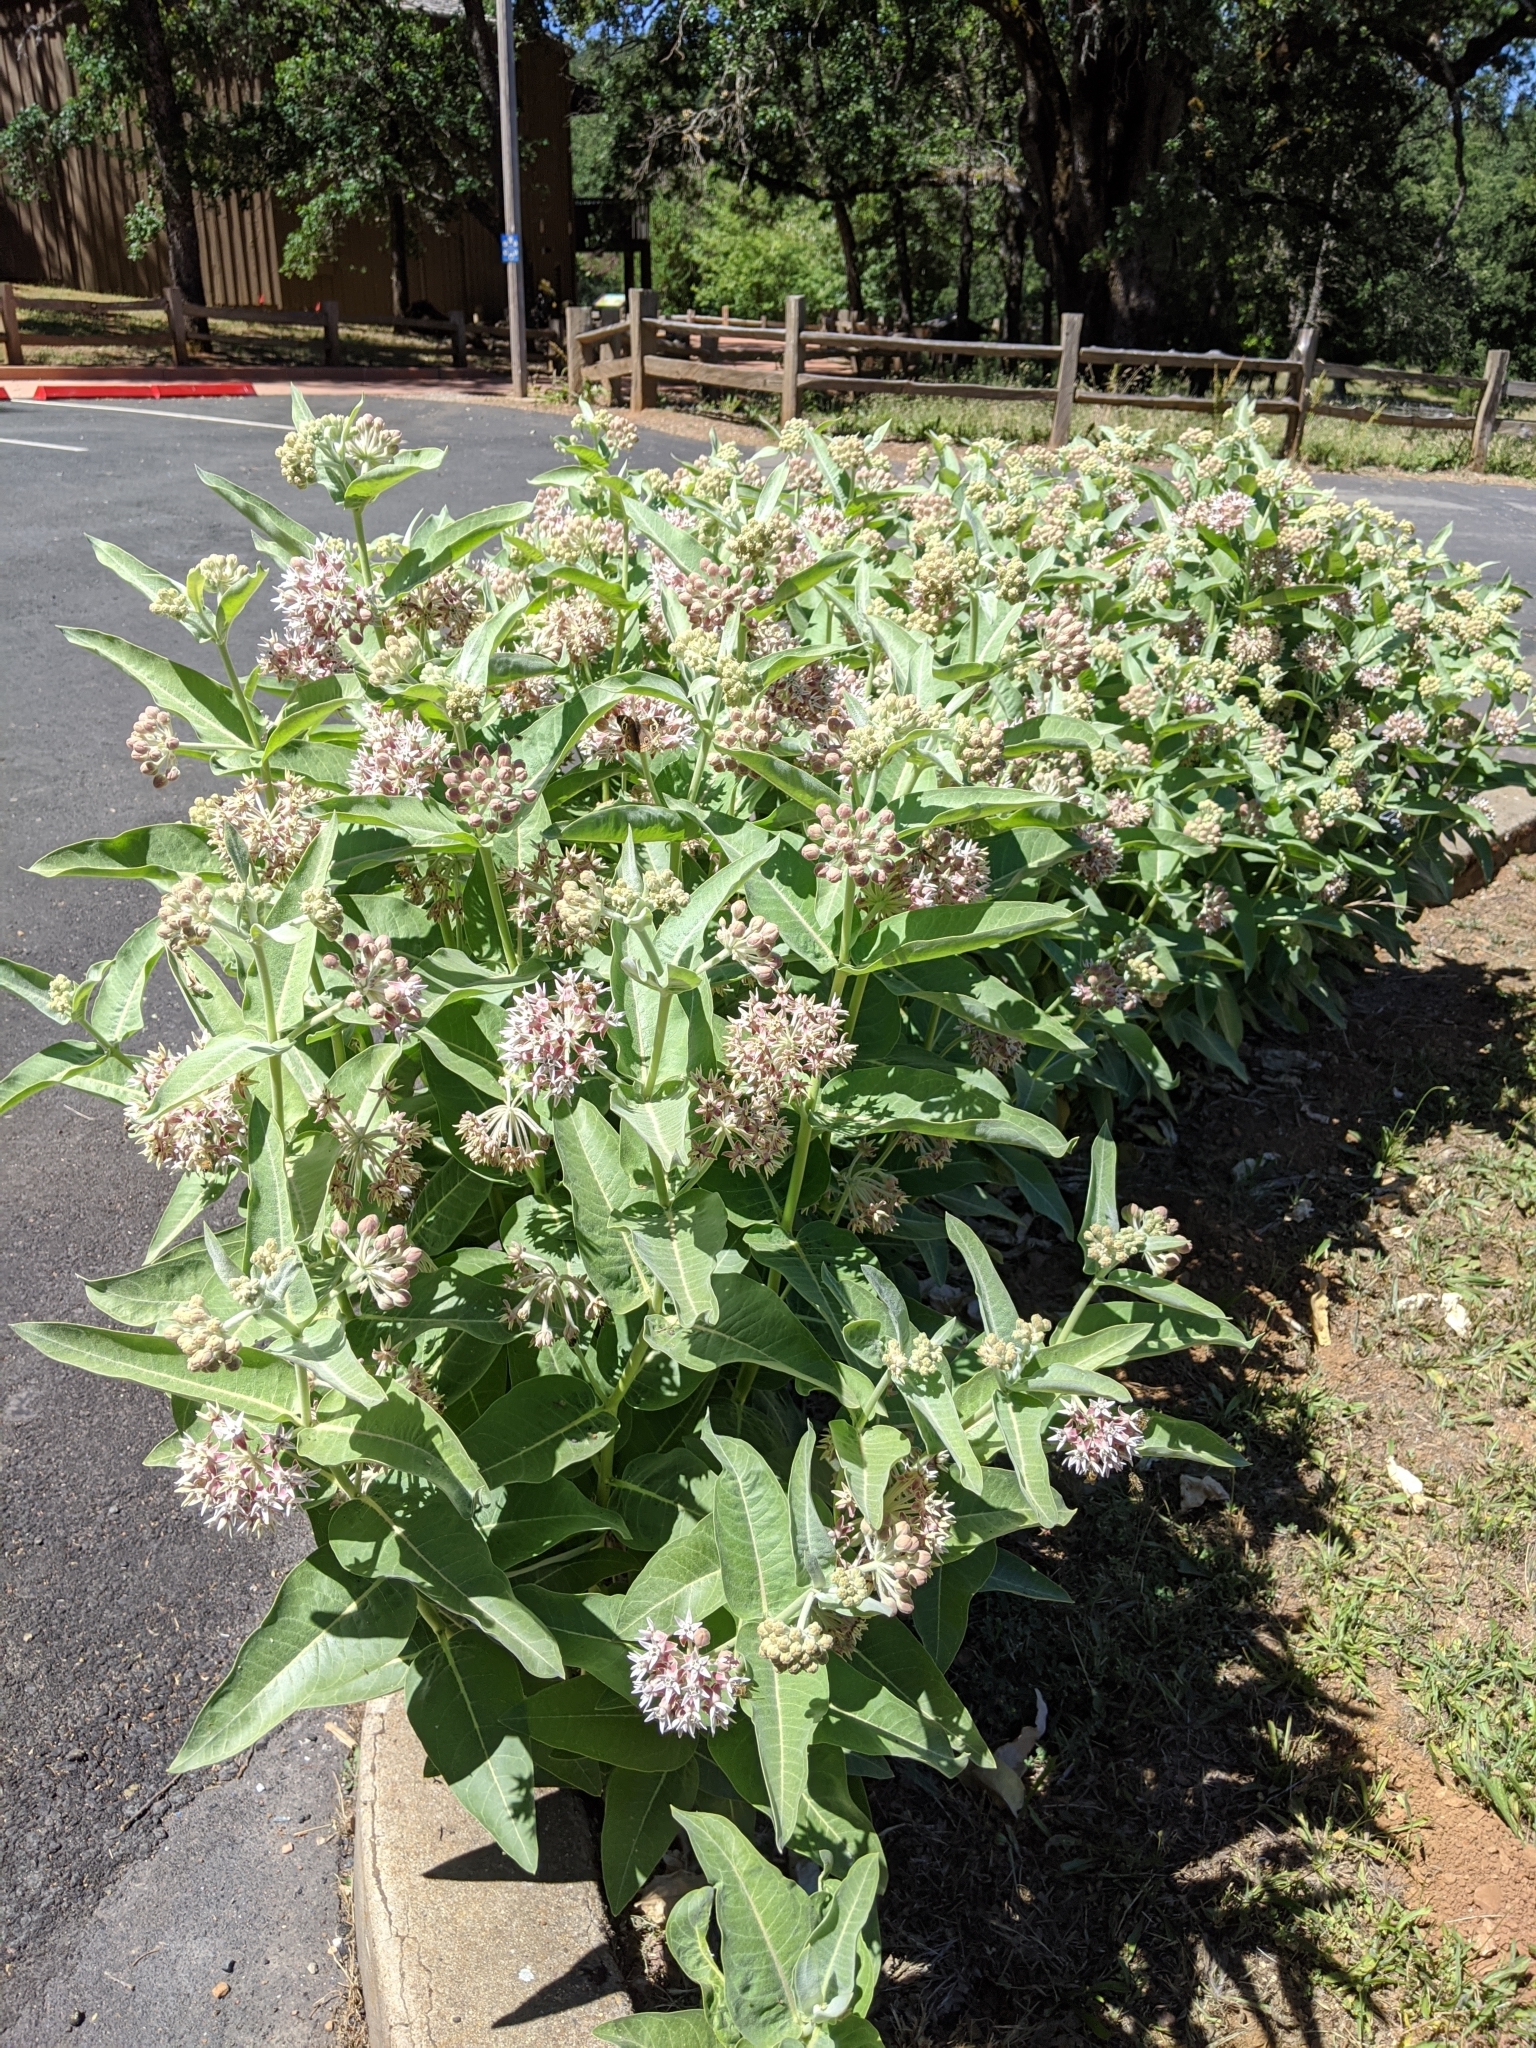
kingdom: Plantae
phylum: Tracheophyta
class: Magnoliopsida
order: Gentianales
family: Apocynaceae
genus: Asclepias
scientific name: Asclepias speciosa
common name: Showy milkweed
